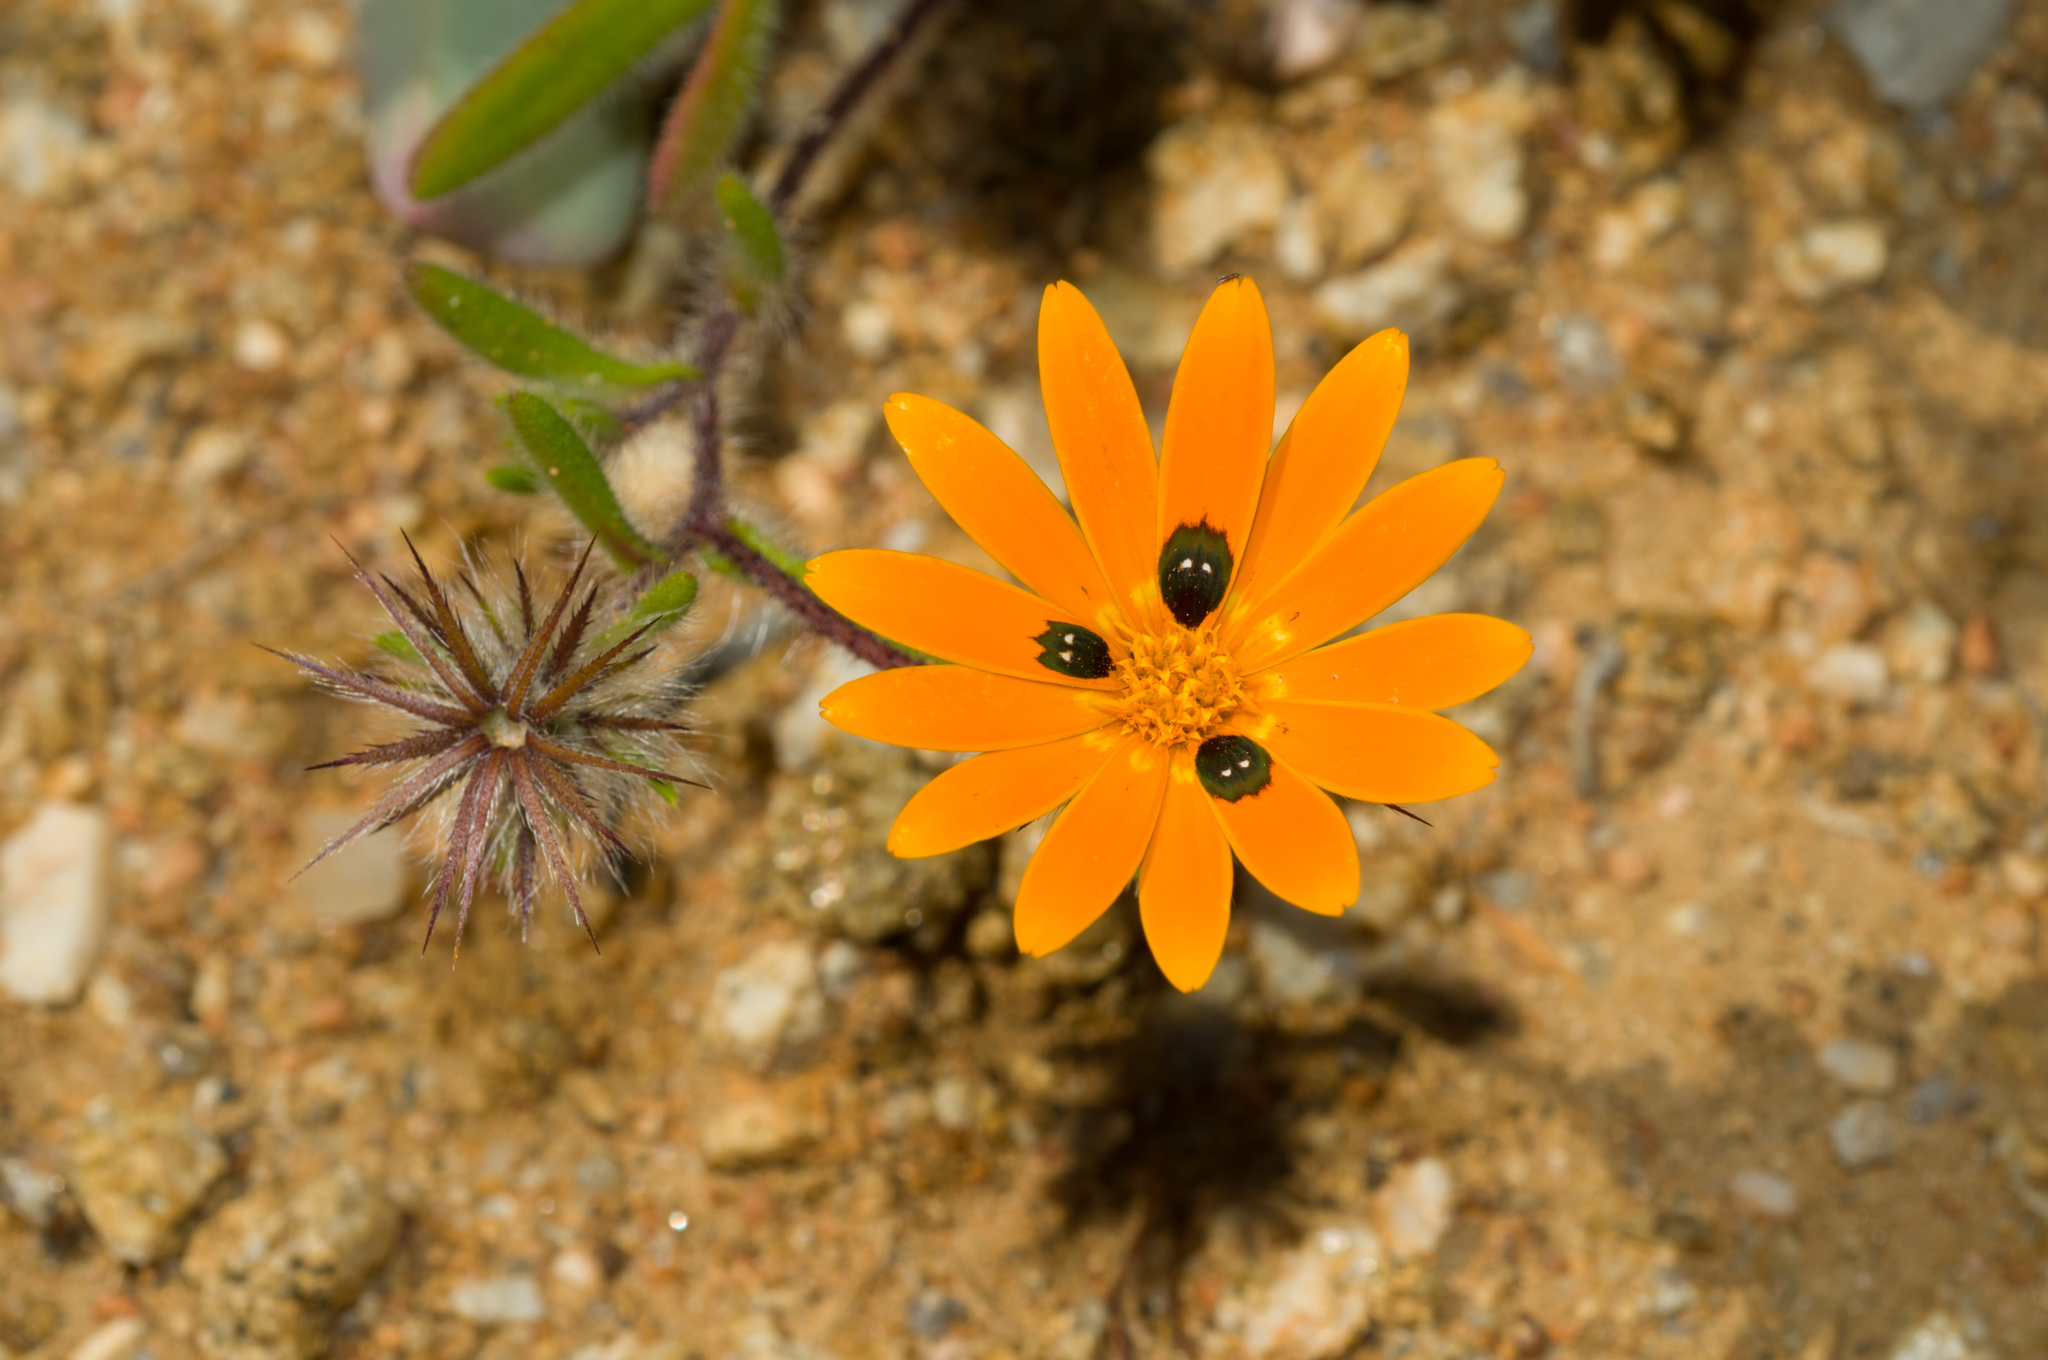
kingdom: Plantae
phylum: Tracheophyta
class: Magnoliopsida
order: Asterales
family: Asteraceae
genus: Gorteria
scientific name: Gorteria diffusa
